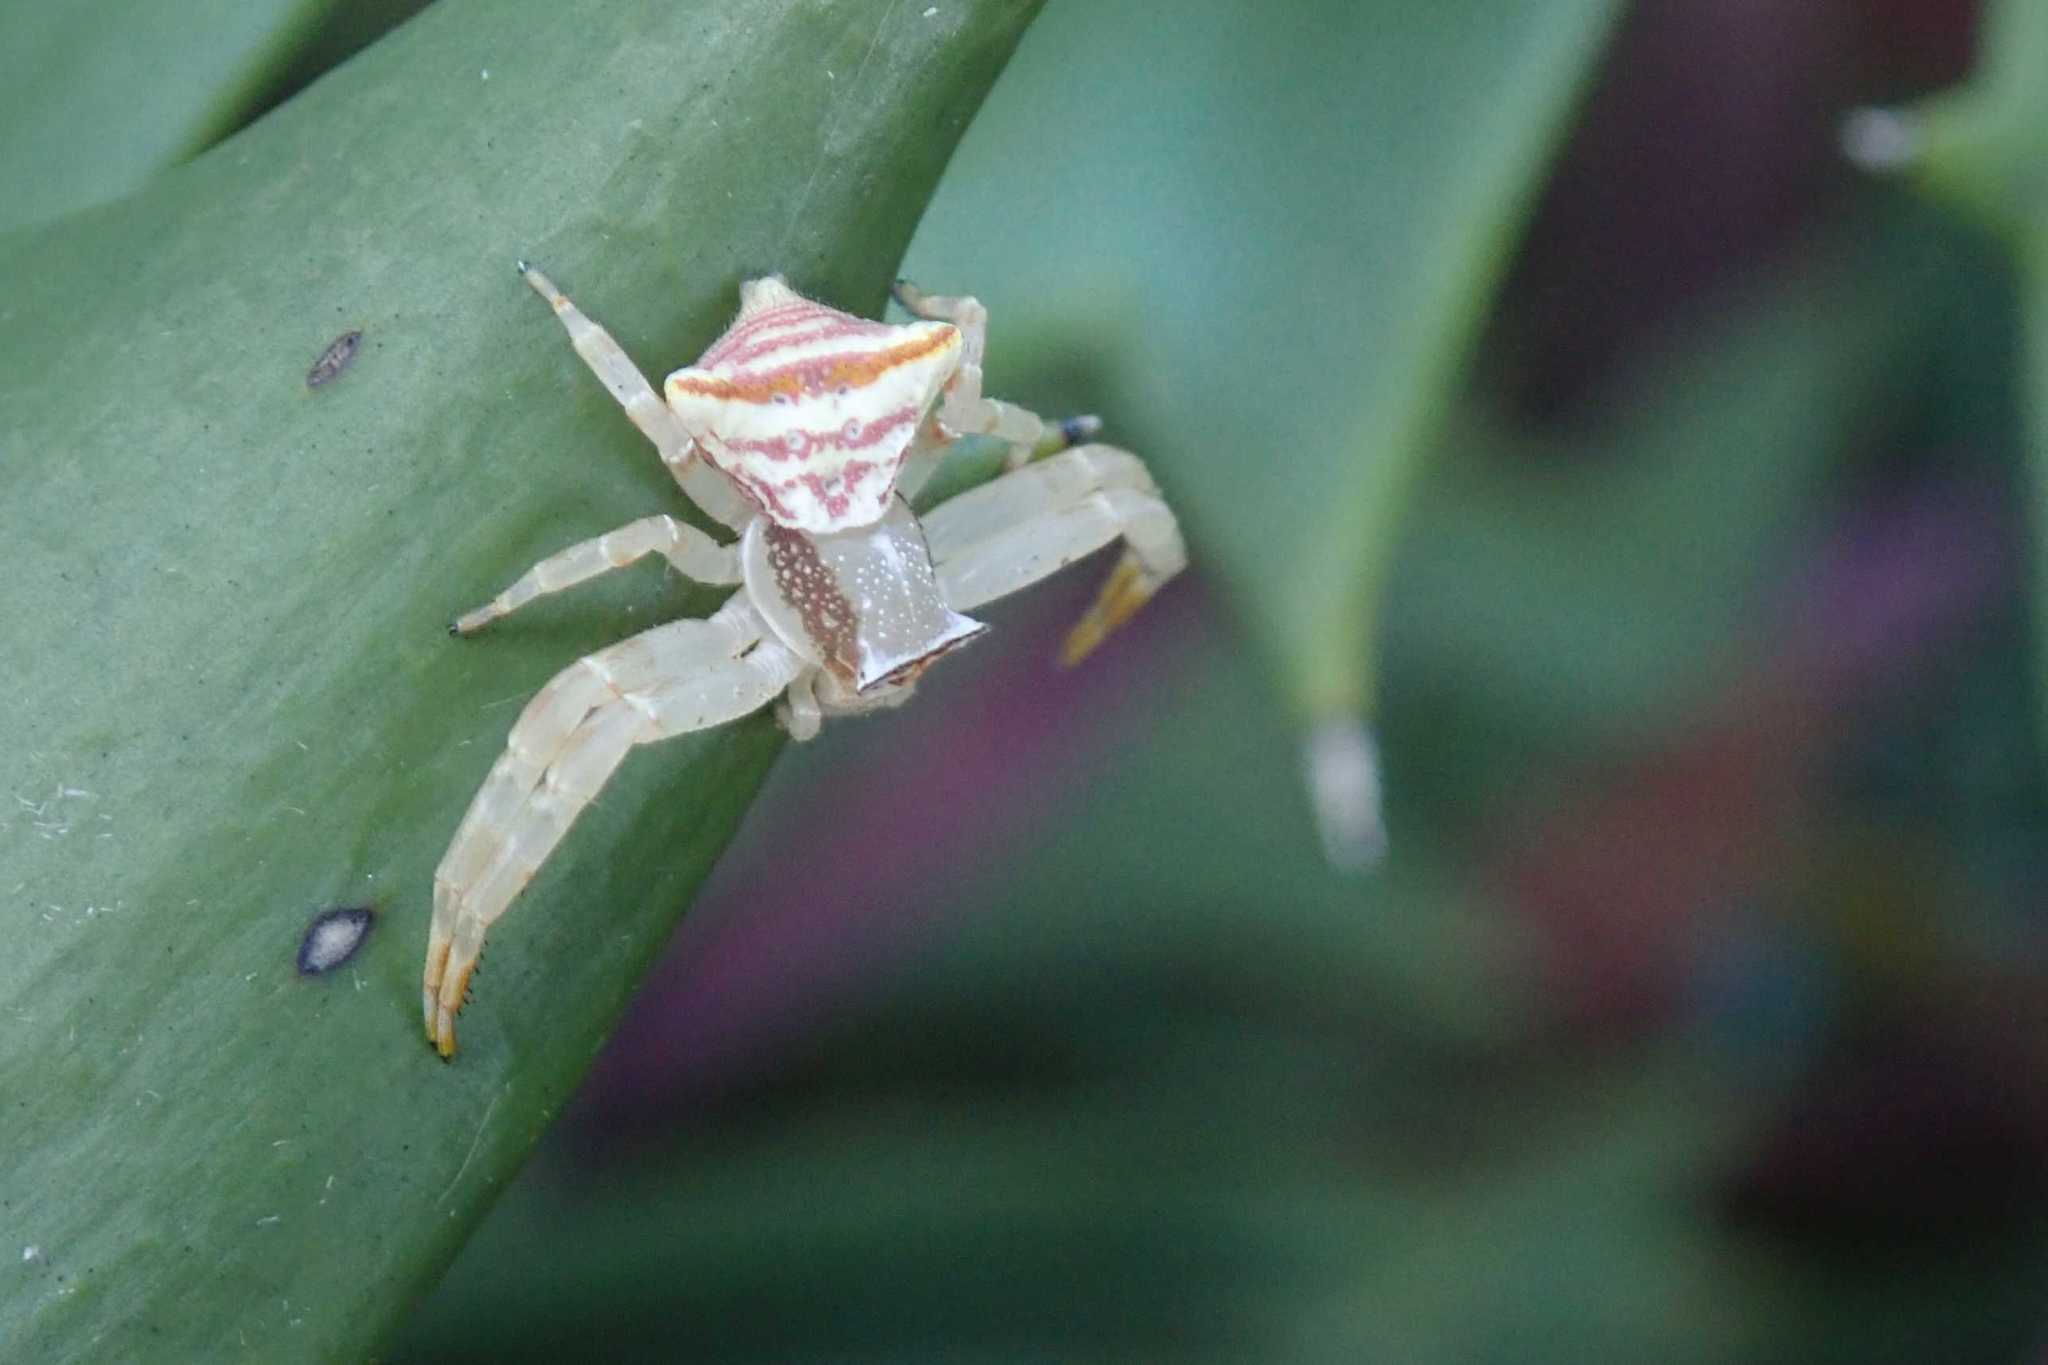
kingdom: Animalia
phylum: Arthropoda
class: Arachnida
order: Araneae
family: Thomisidae
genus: Thomisus
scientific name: Thomisus blandus
